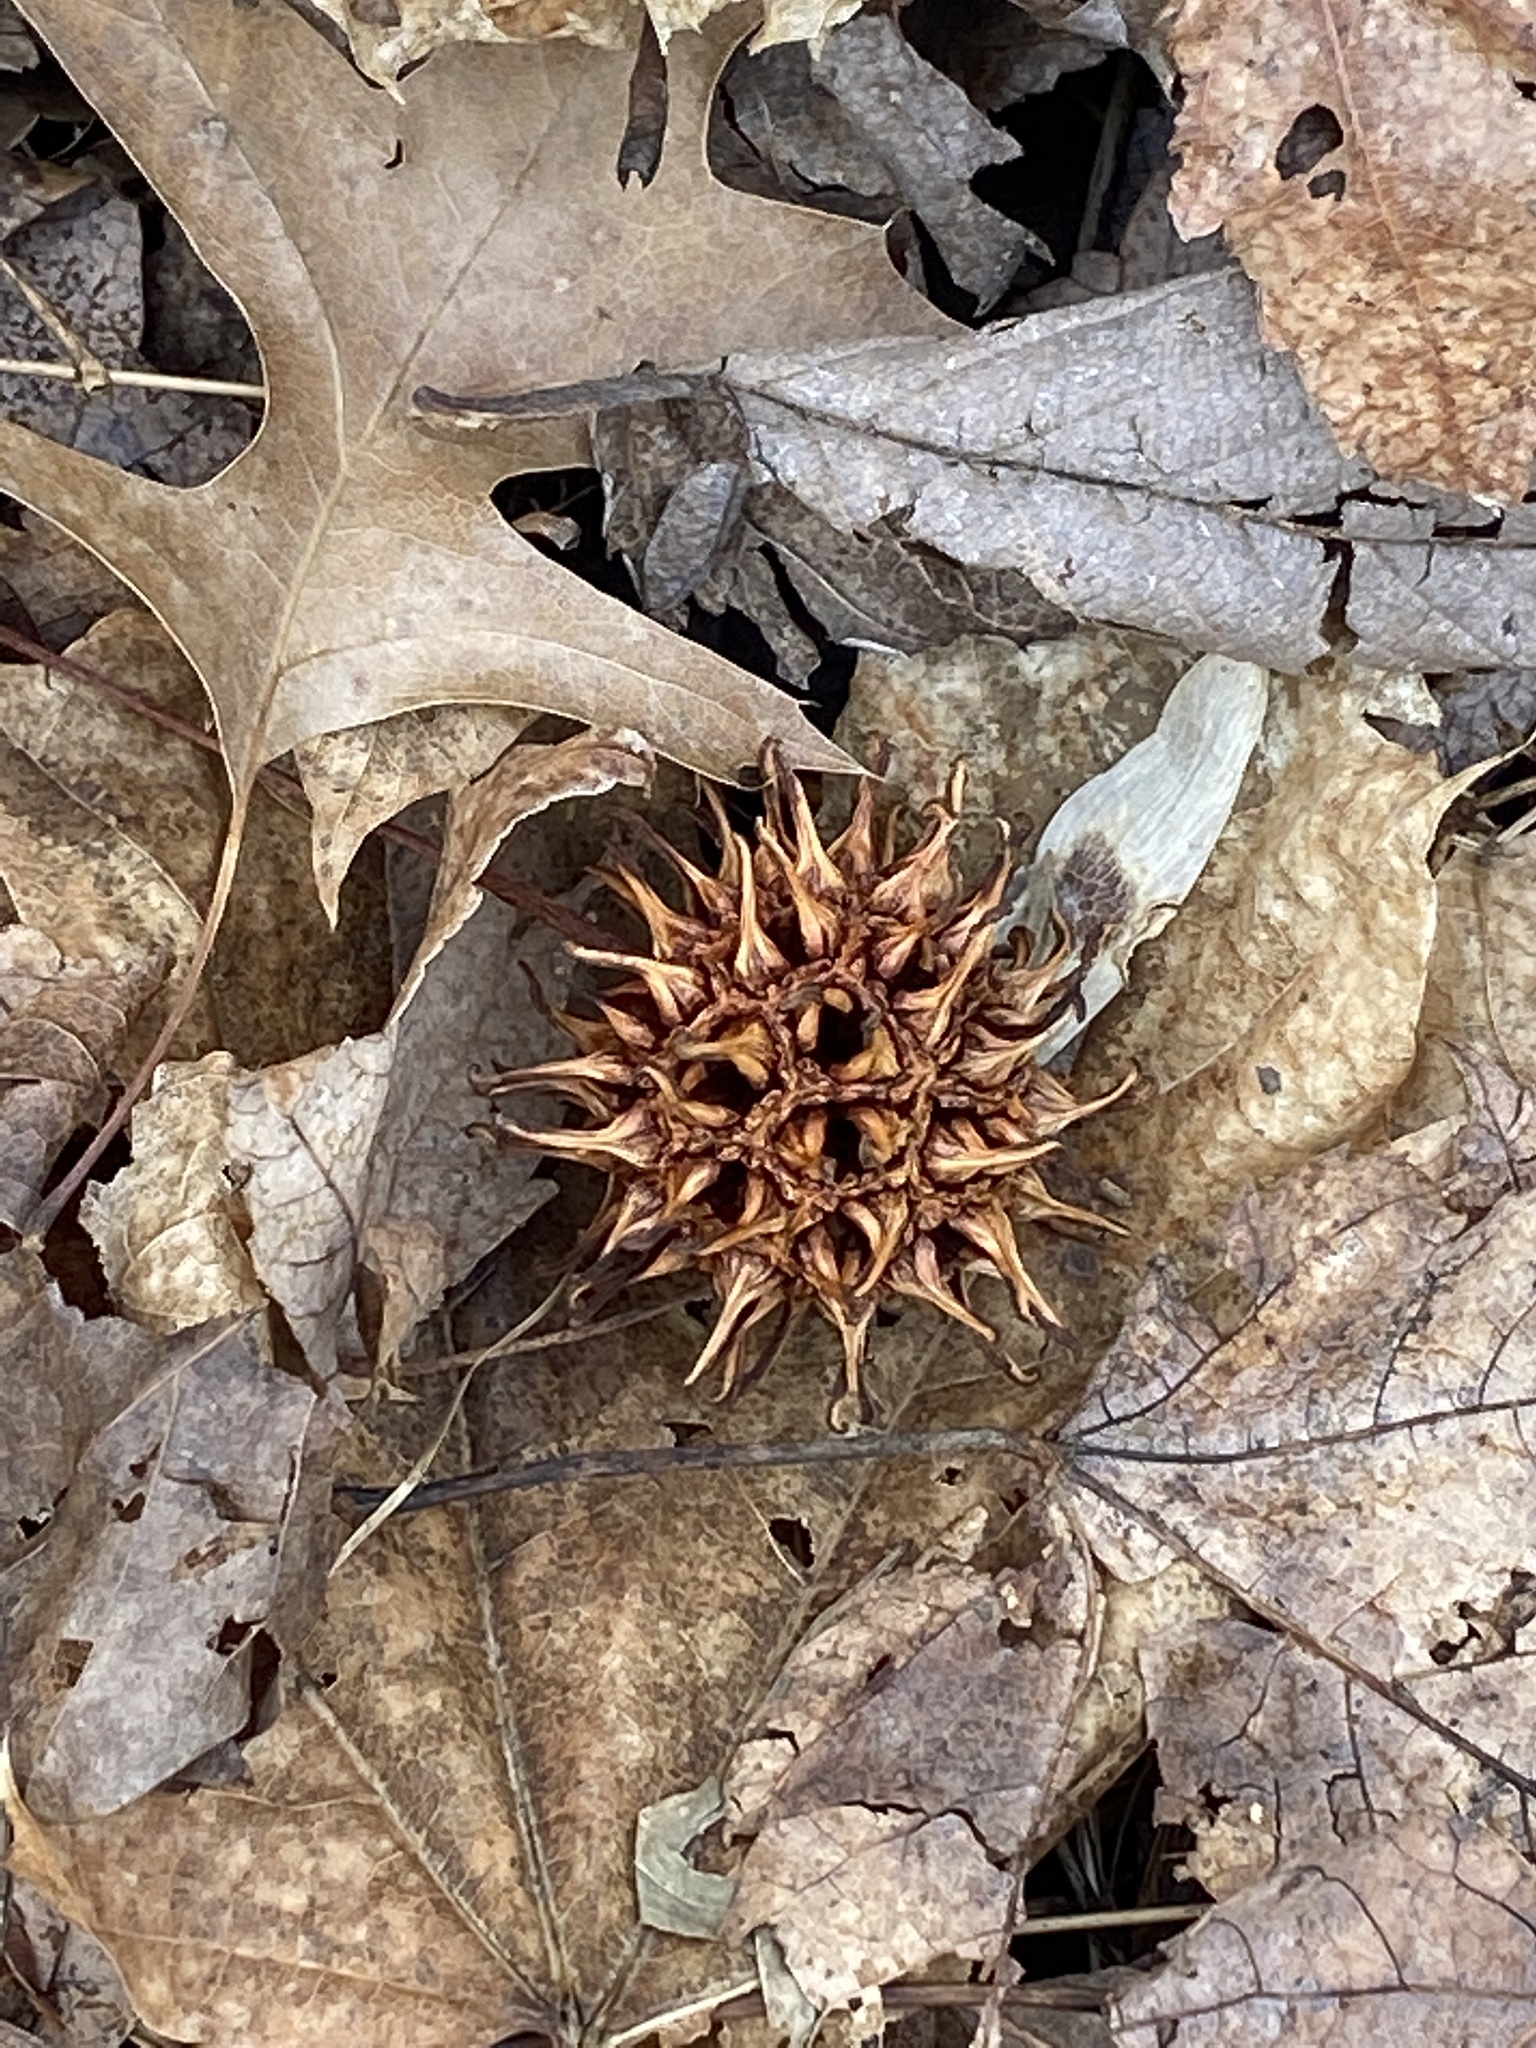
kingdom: Plantae
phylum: Tracheophyta
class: Magnoliopsida
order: Saxifragales
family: Altingiaceae
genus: Liquidambar
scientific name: Liquidambar styraciflua
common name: Sweet gum
